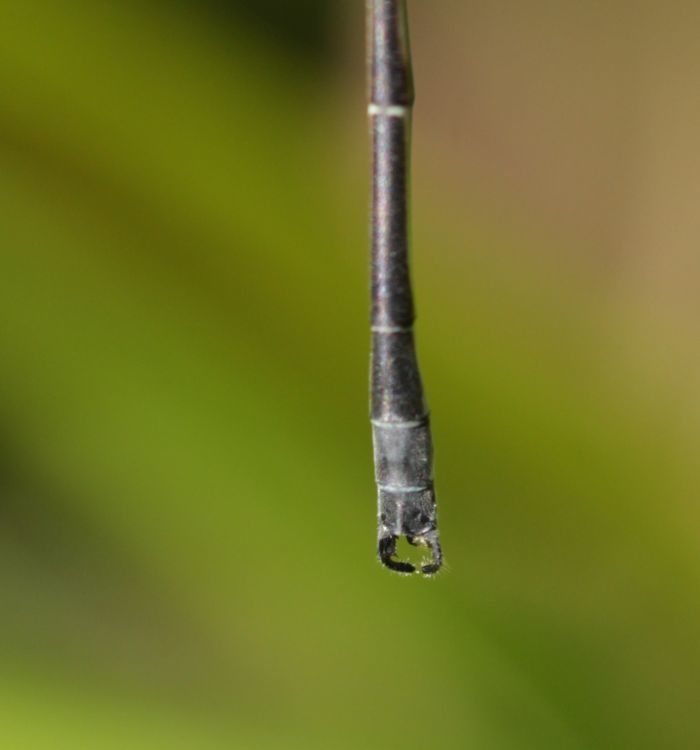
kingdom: Animalia
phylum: Arthropoda
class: Insecta
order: Odonata
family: Lestidae
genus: Lestes
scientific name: Lestes rectangularis
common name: Slender spreadwing
